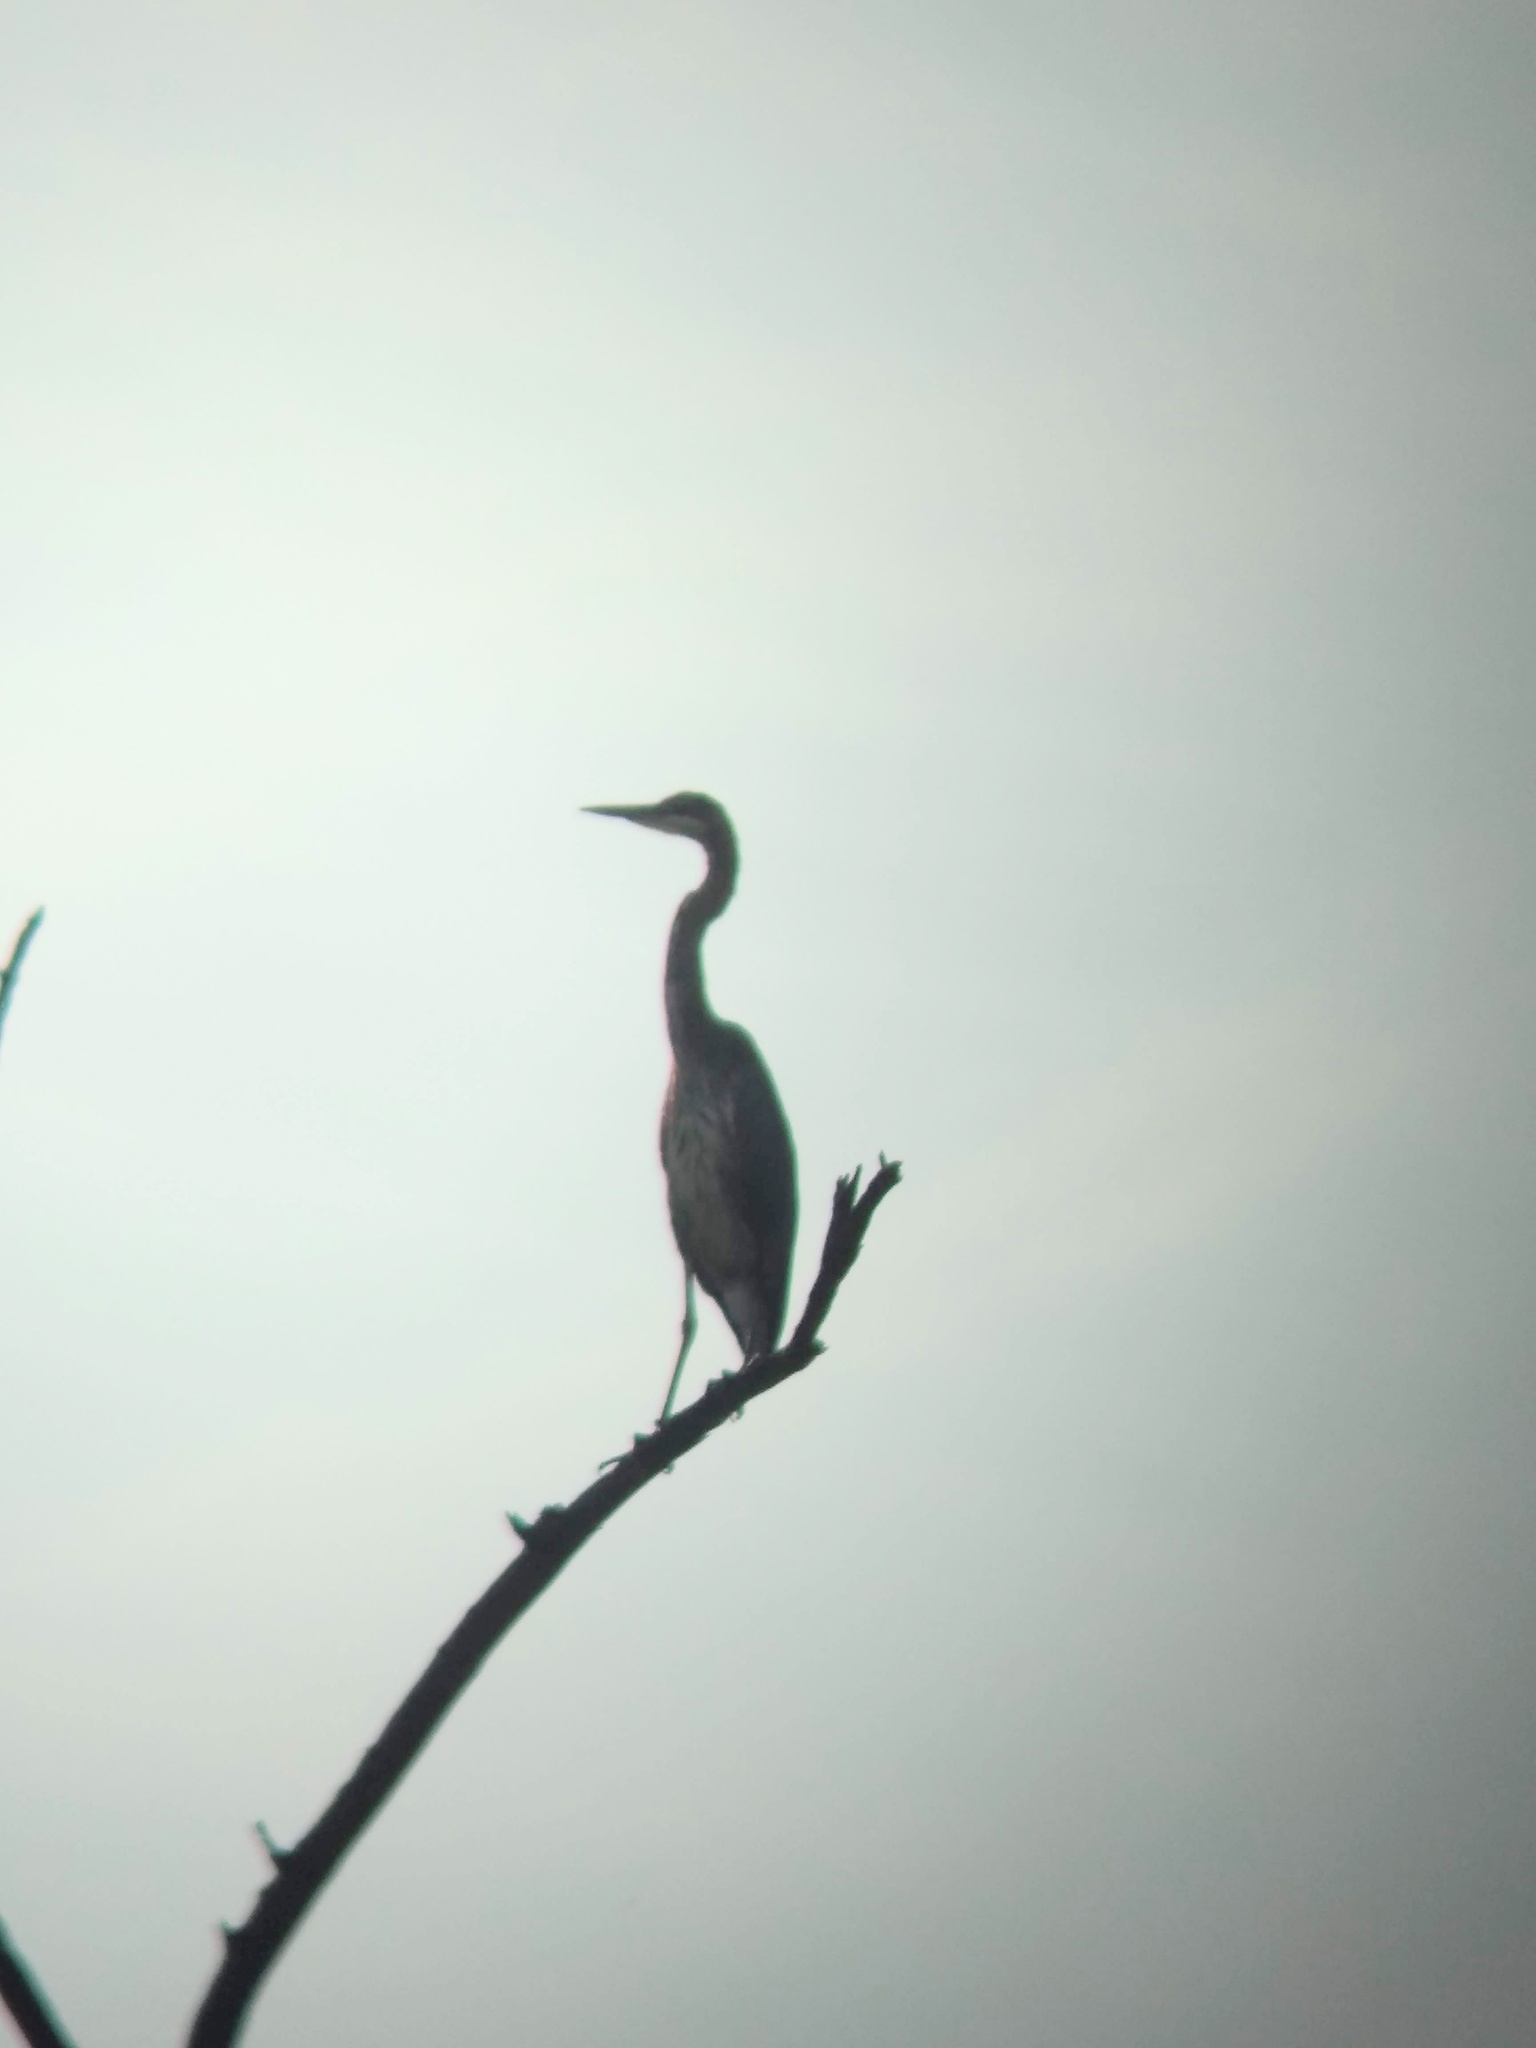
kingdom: Animalia
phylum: Chordata
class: Aves
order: Pelecaniformes
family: Ardeidae
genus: Ardea
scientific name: Ardea herodias
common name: Great blue heron
